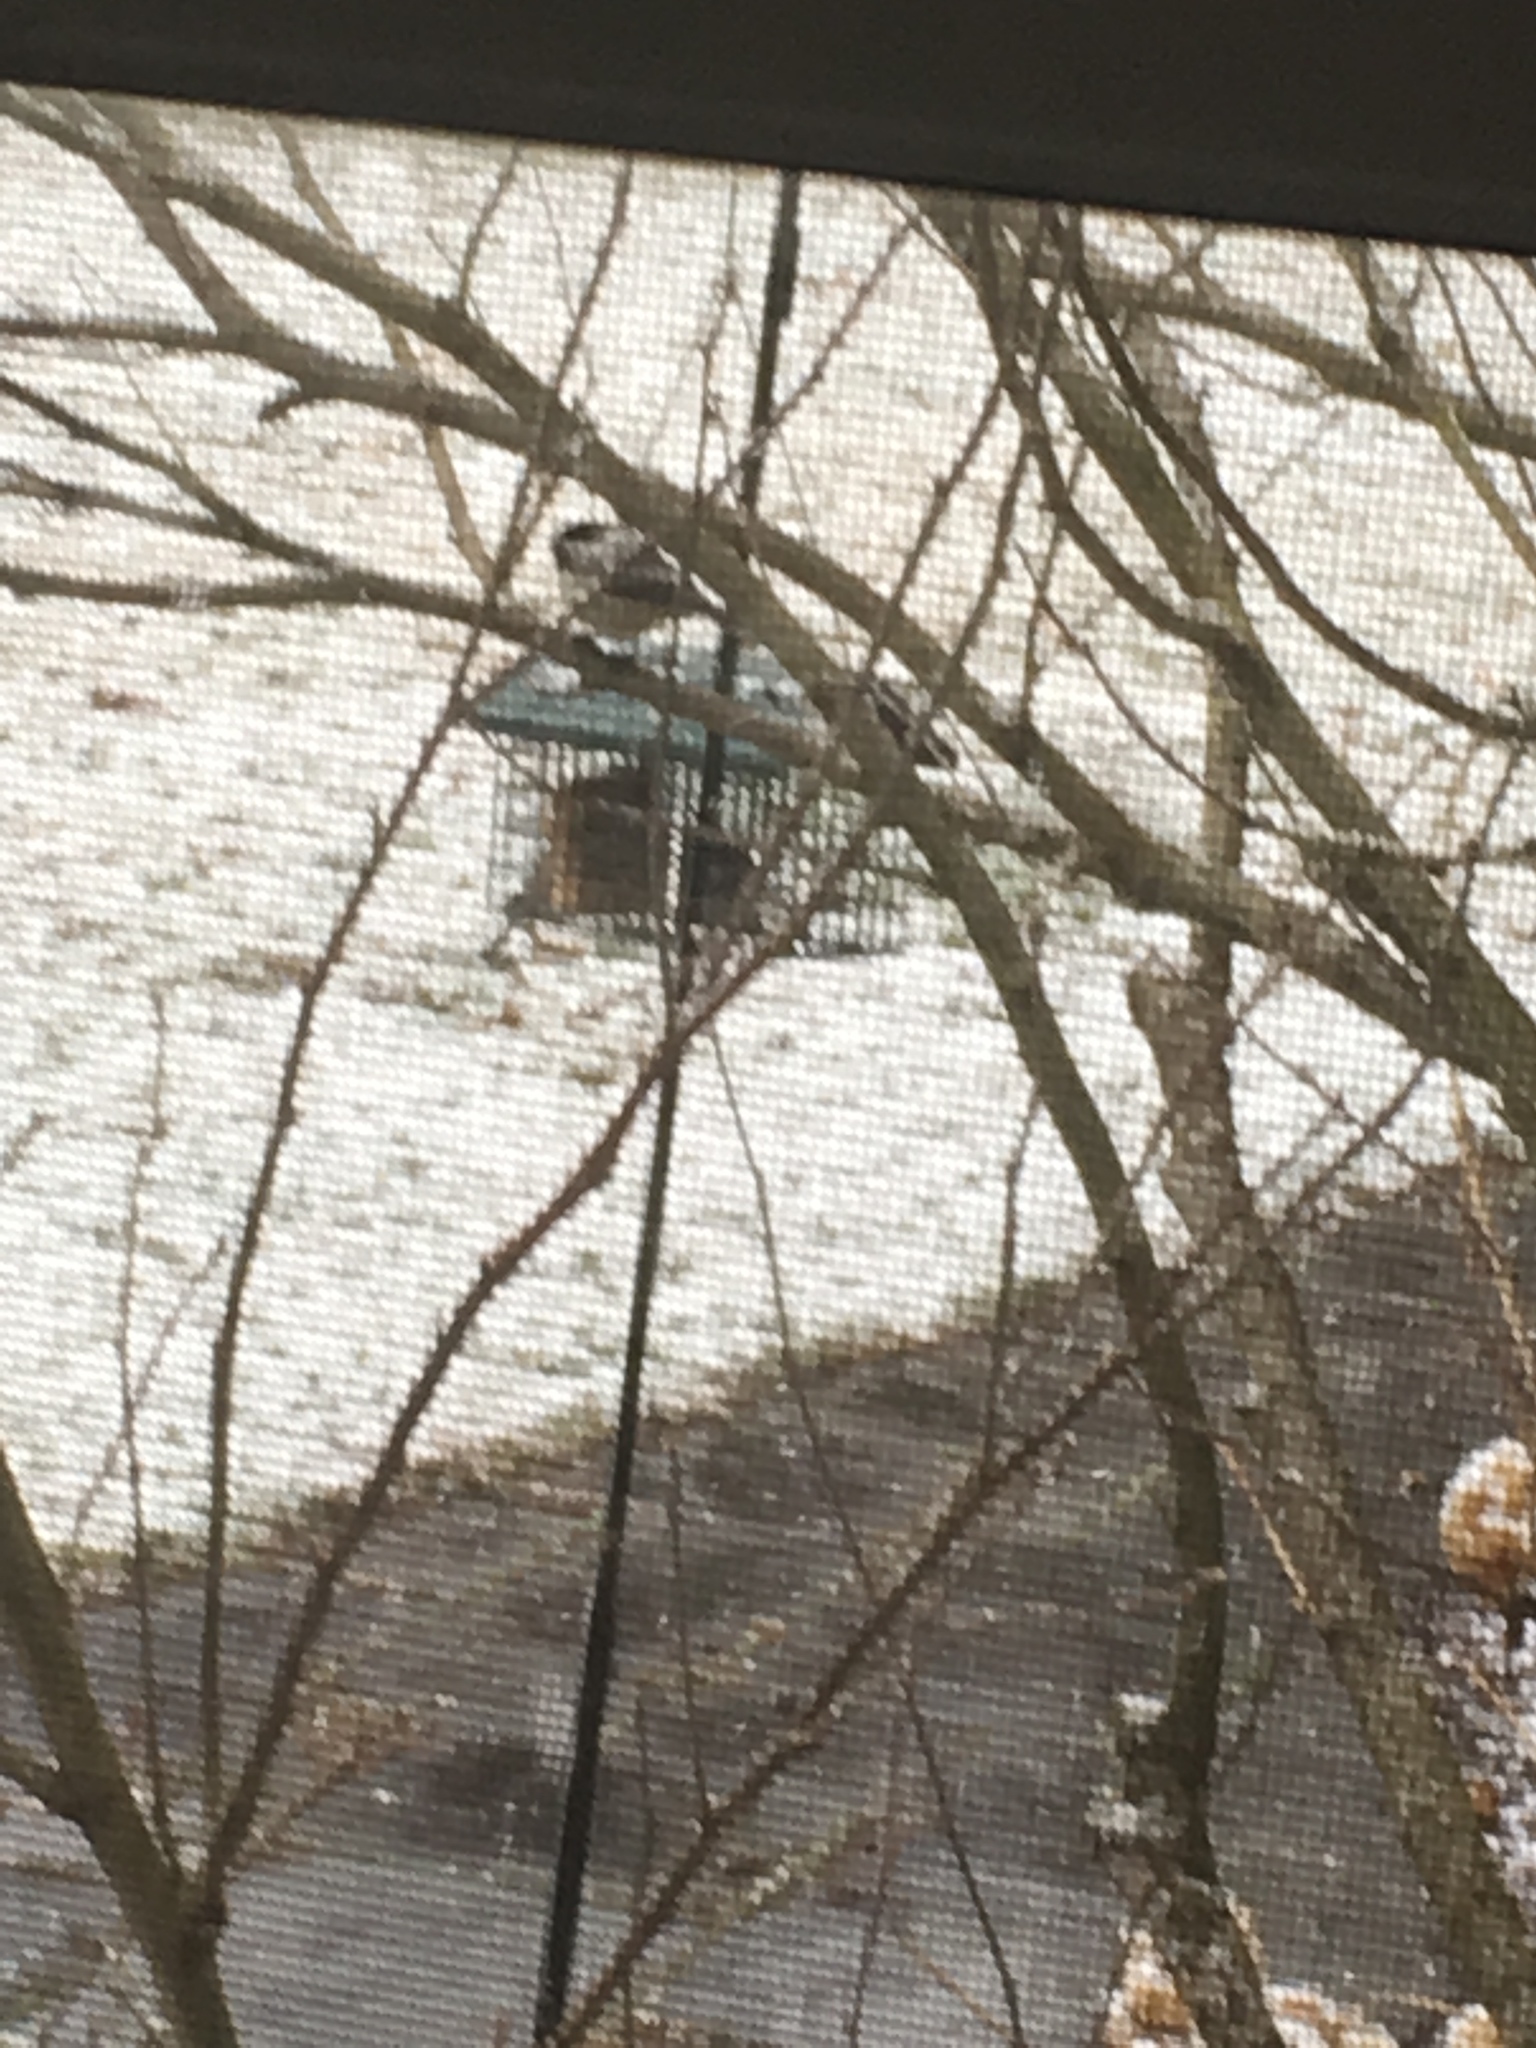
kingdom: Animalia
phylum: Chordata
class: Aves
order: Passeriformes
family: Paridae
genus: Poecile
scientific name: Poecile atricapillus
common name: Black-capped chickadee
